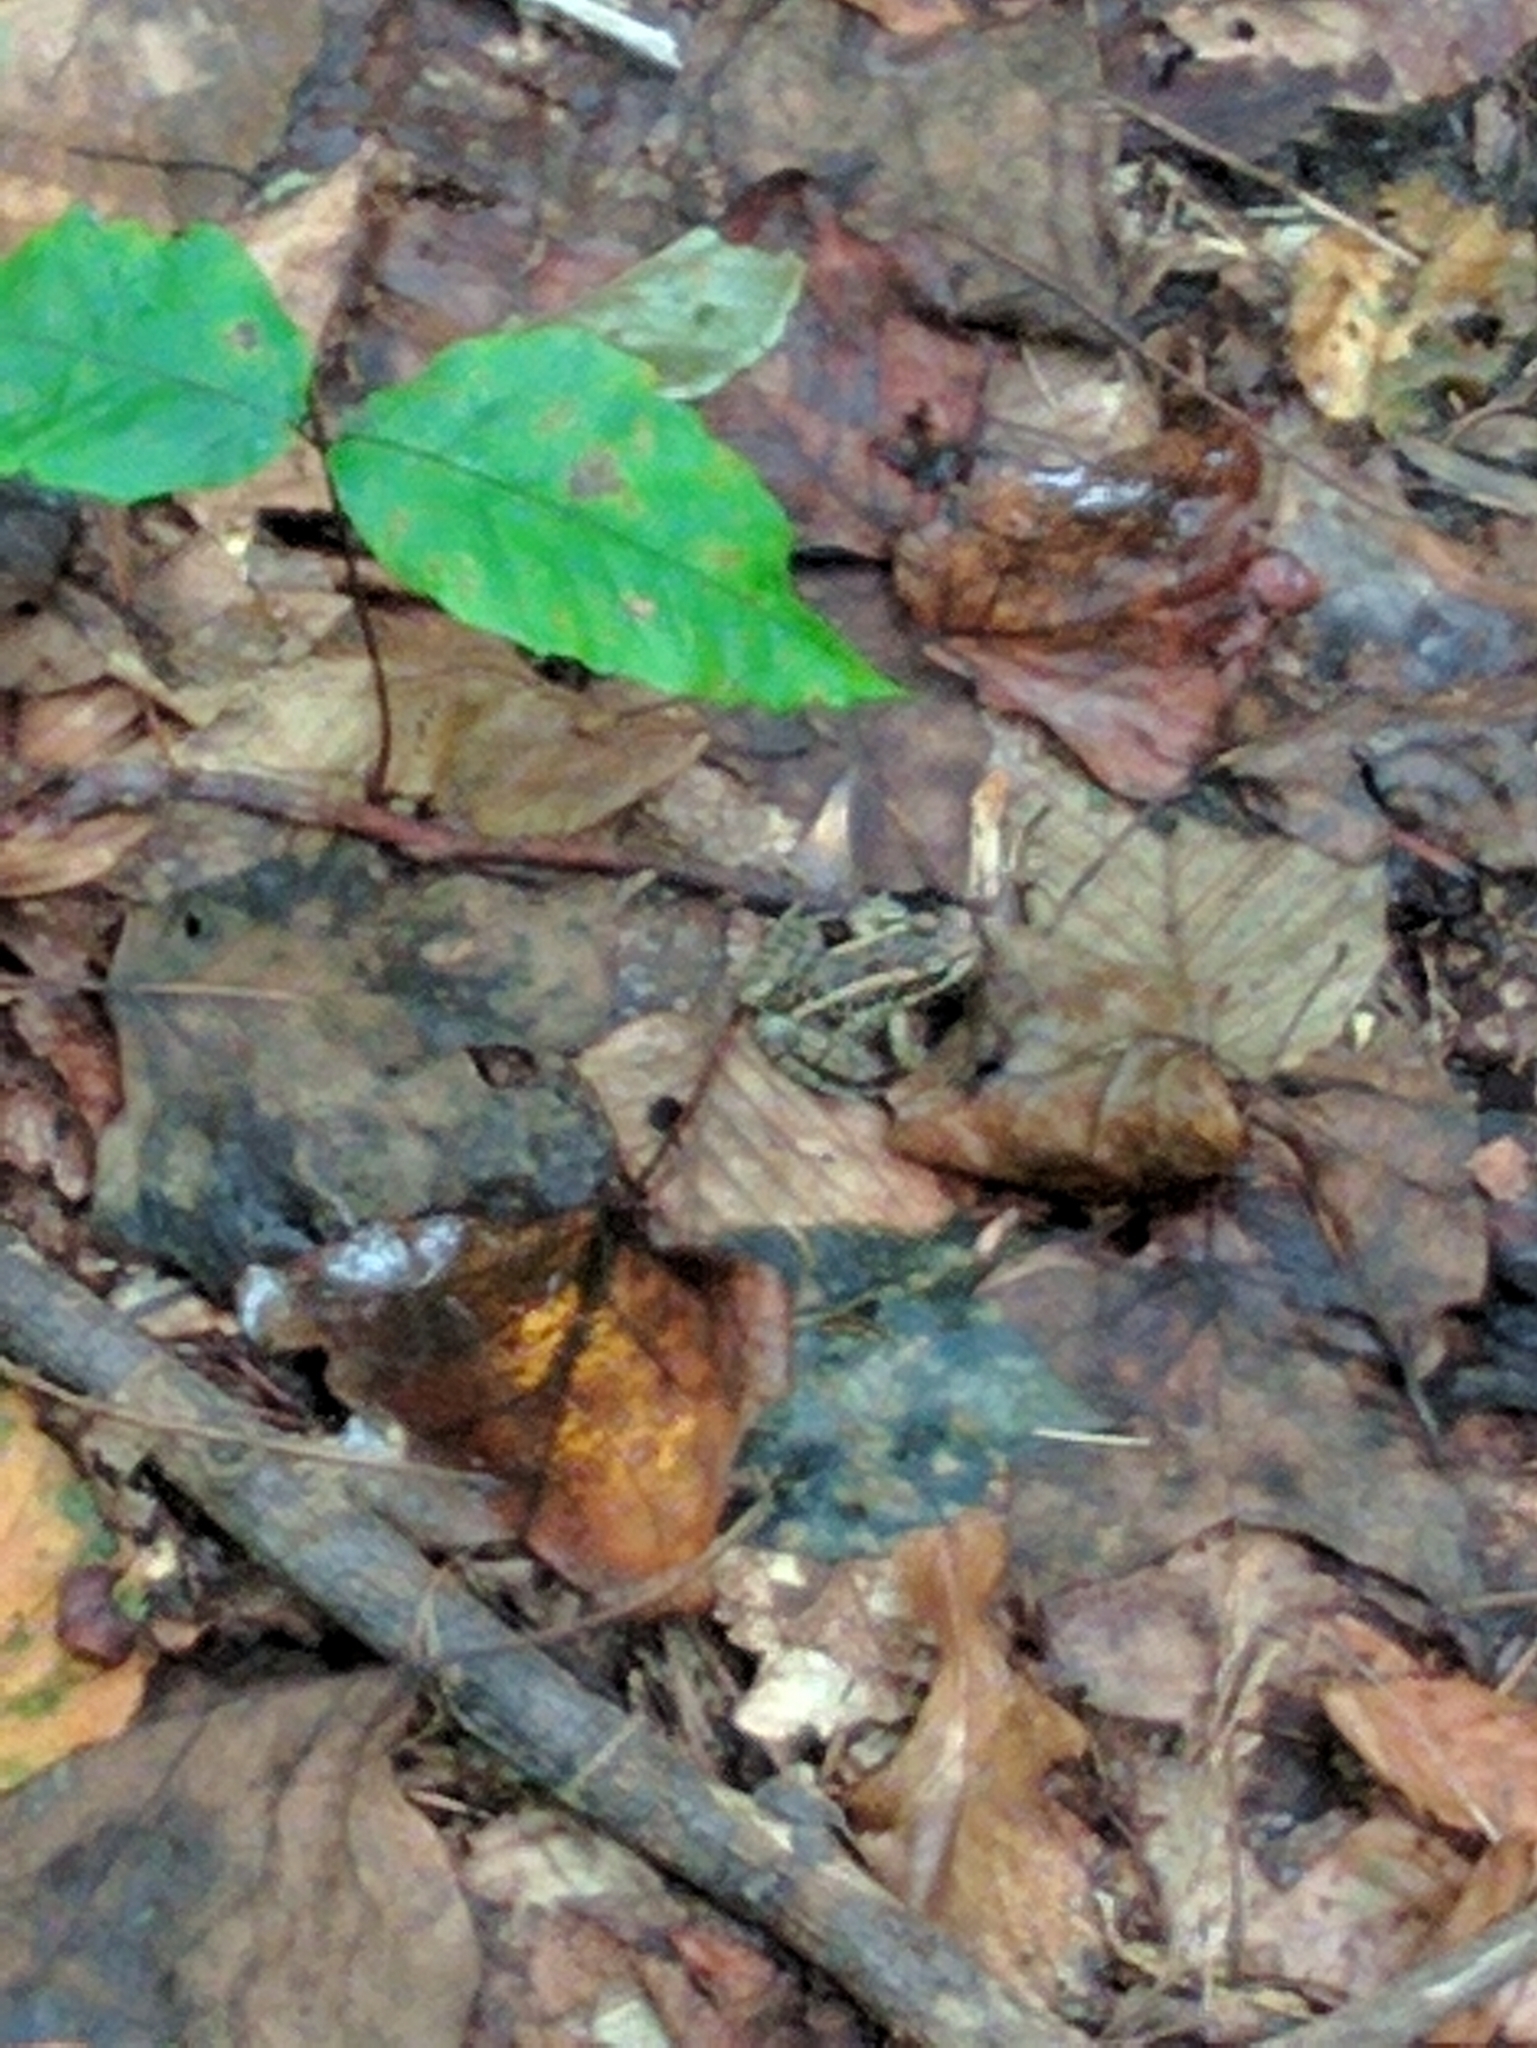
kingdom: Animalia
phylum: Chordata
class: Amphibia
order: Anura
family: Ranidae
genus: Lithobates
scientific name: Lithobates palustris
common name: Pickerel frog
